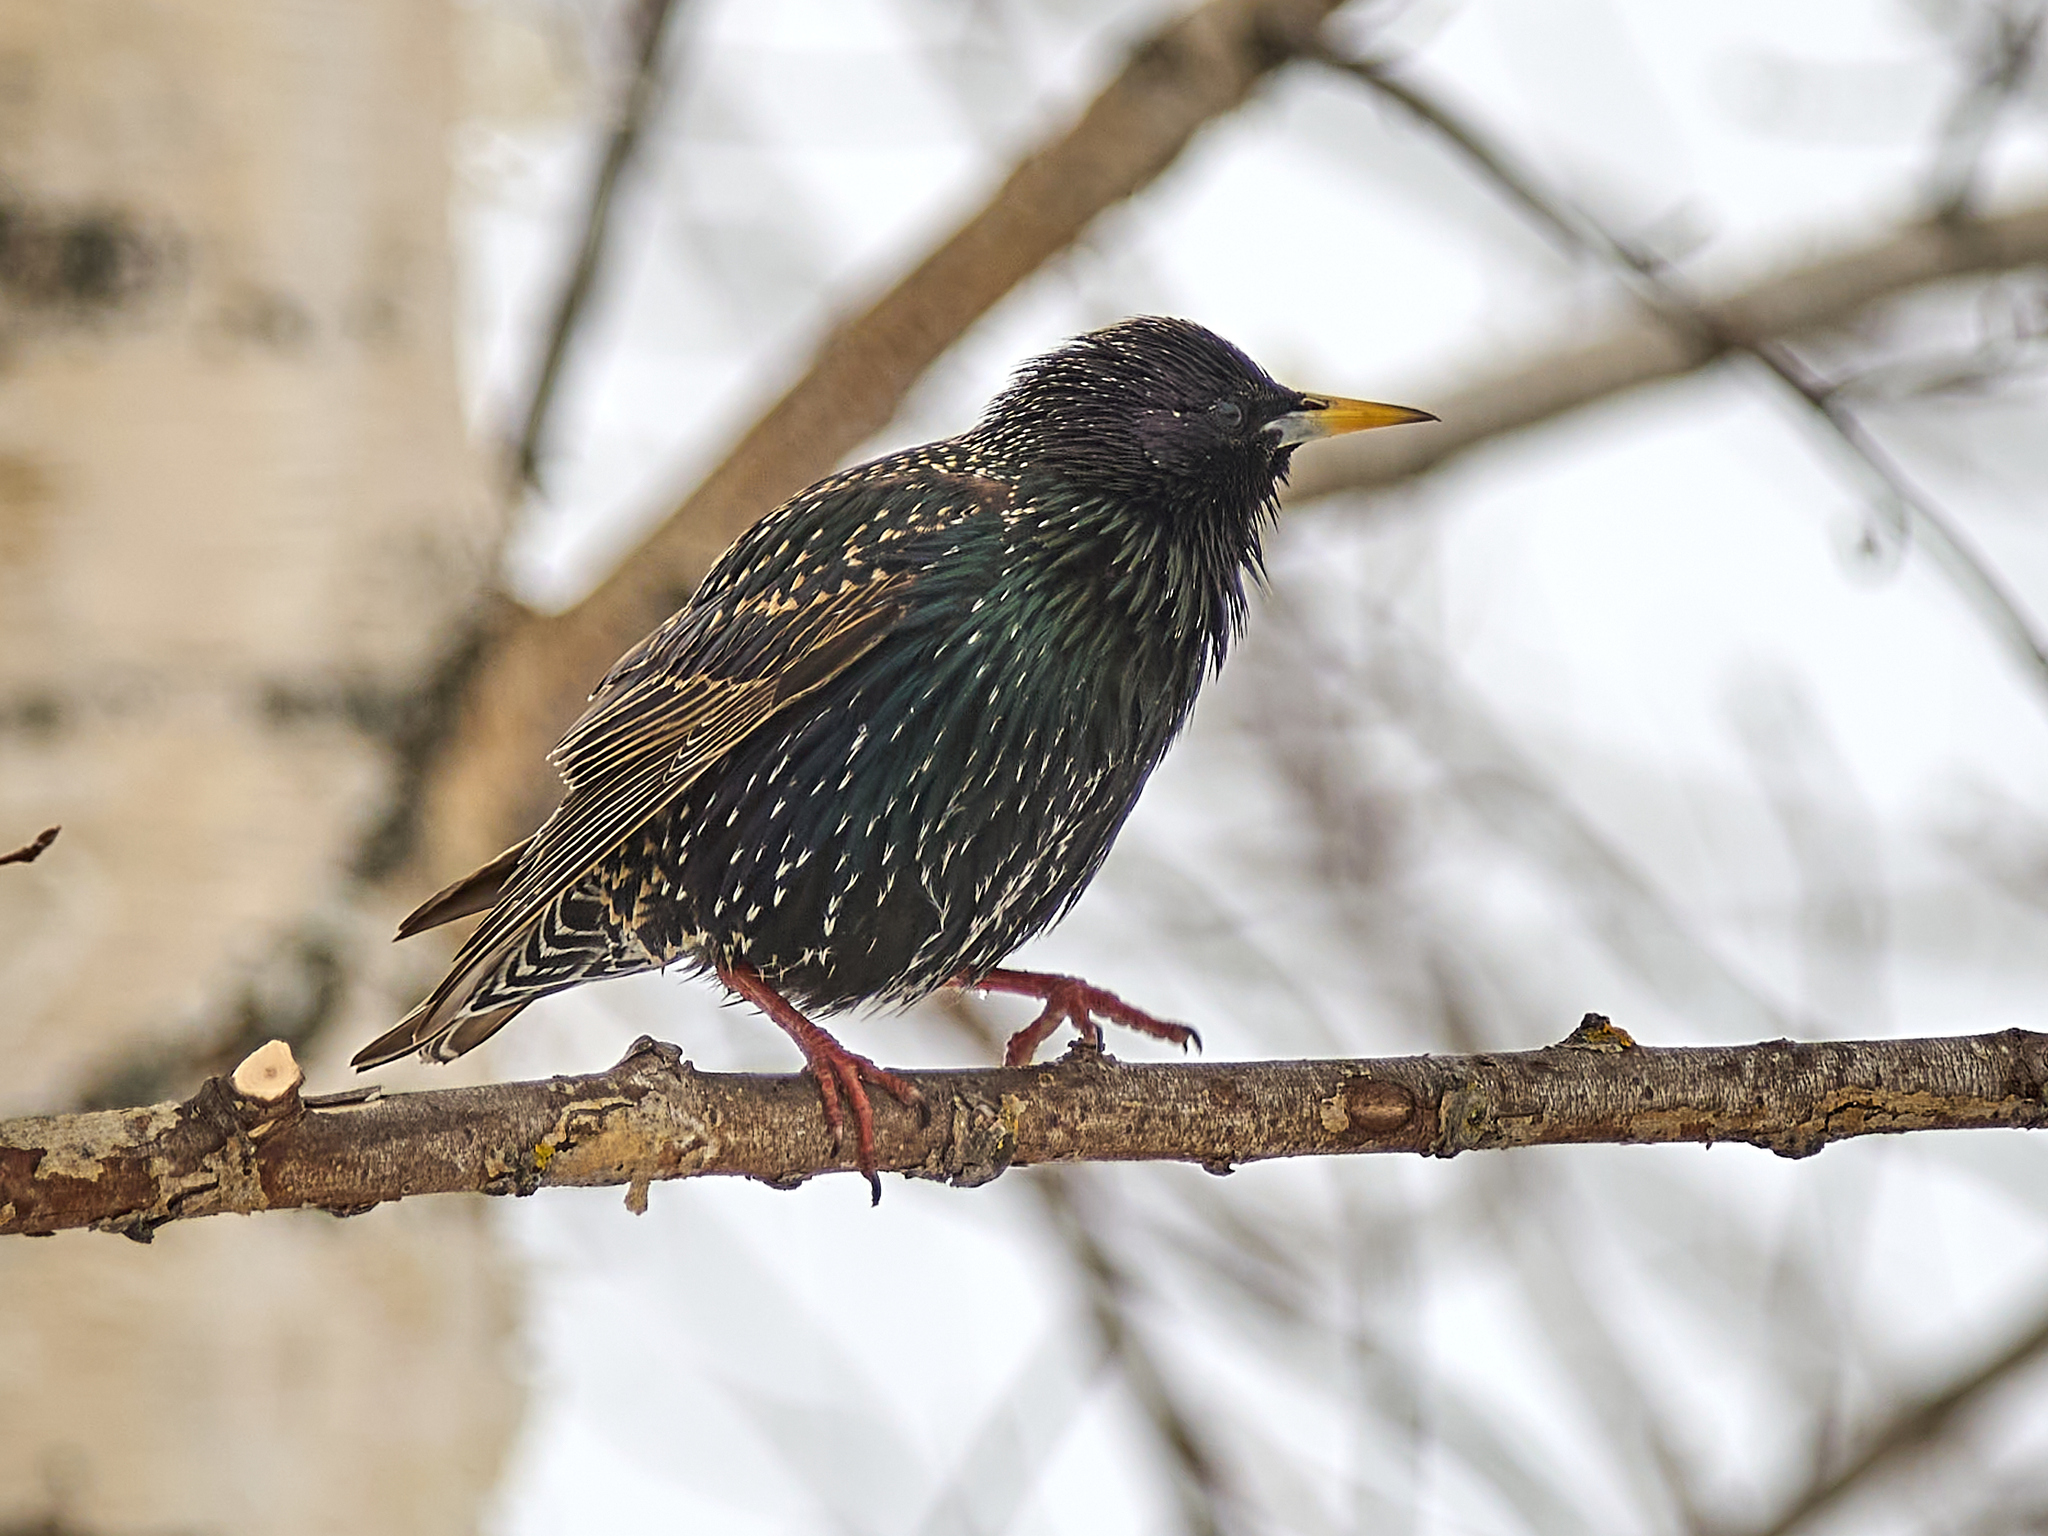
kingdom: Animalia
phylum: Chordata
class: Aves
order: Passeriformes
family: Sturnidae
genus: Sturnus
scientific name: Sturnus vulgaris
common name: Common starling
